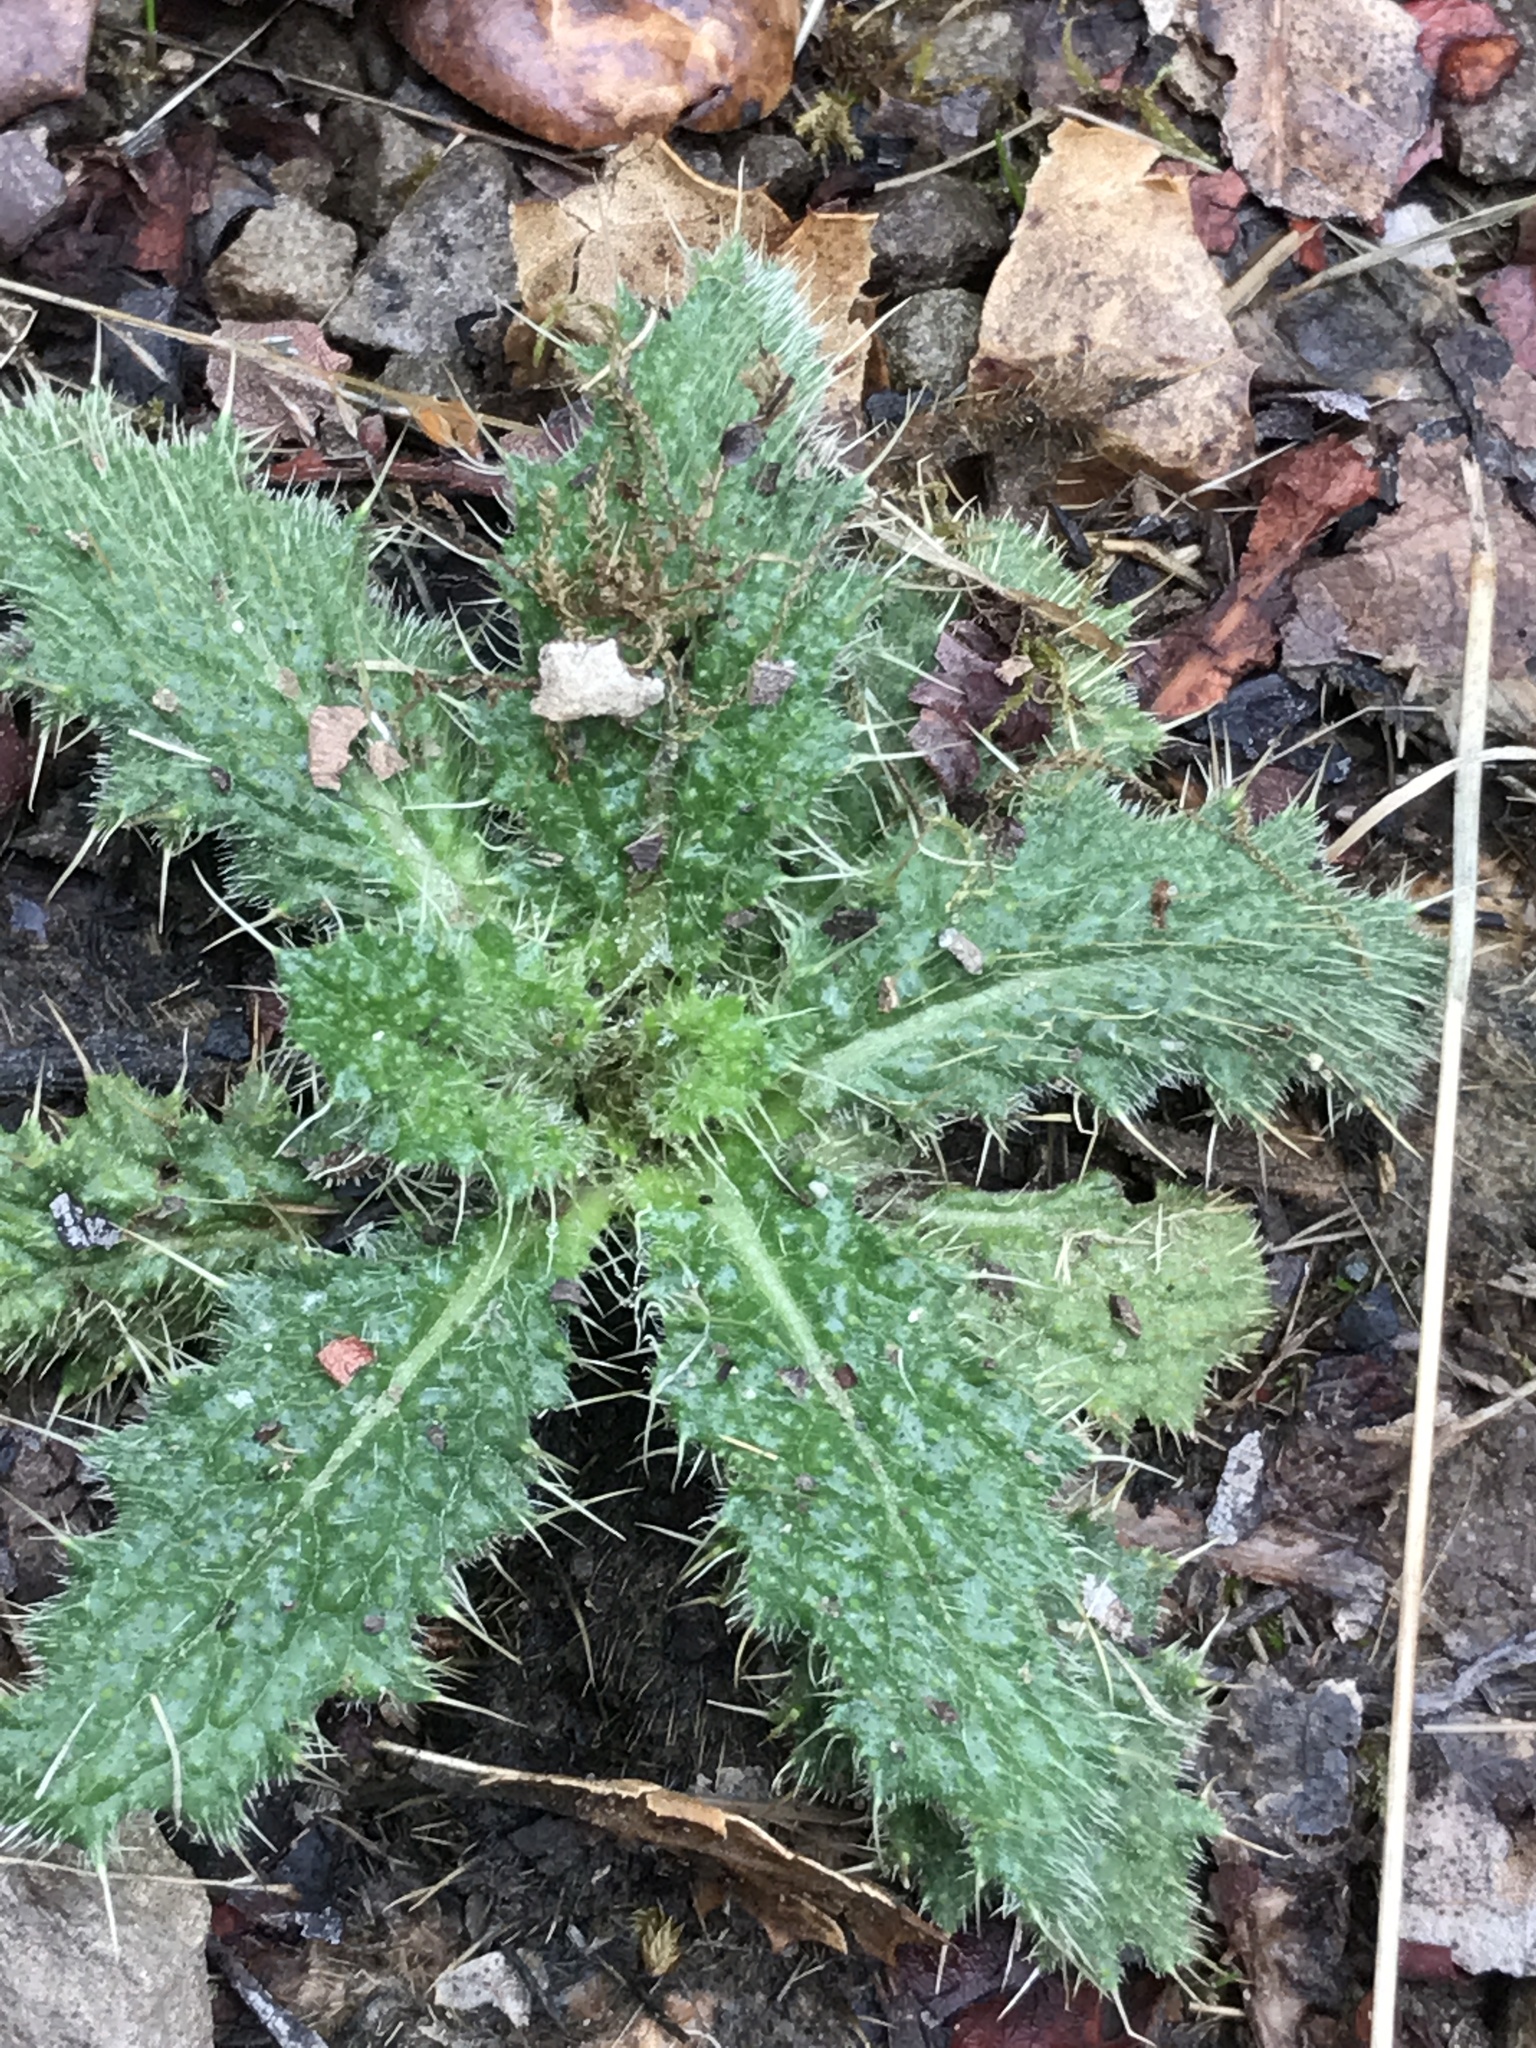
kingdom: Plantae
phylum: Tracheophyta
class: Magnoliopsida
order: Asterales
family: Asteraceae
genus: Cirsium
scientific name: Cirsium vulgare
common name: Bull thistle
